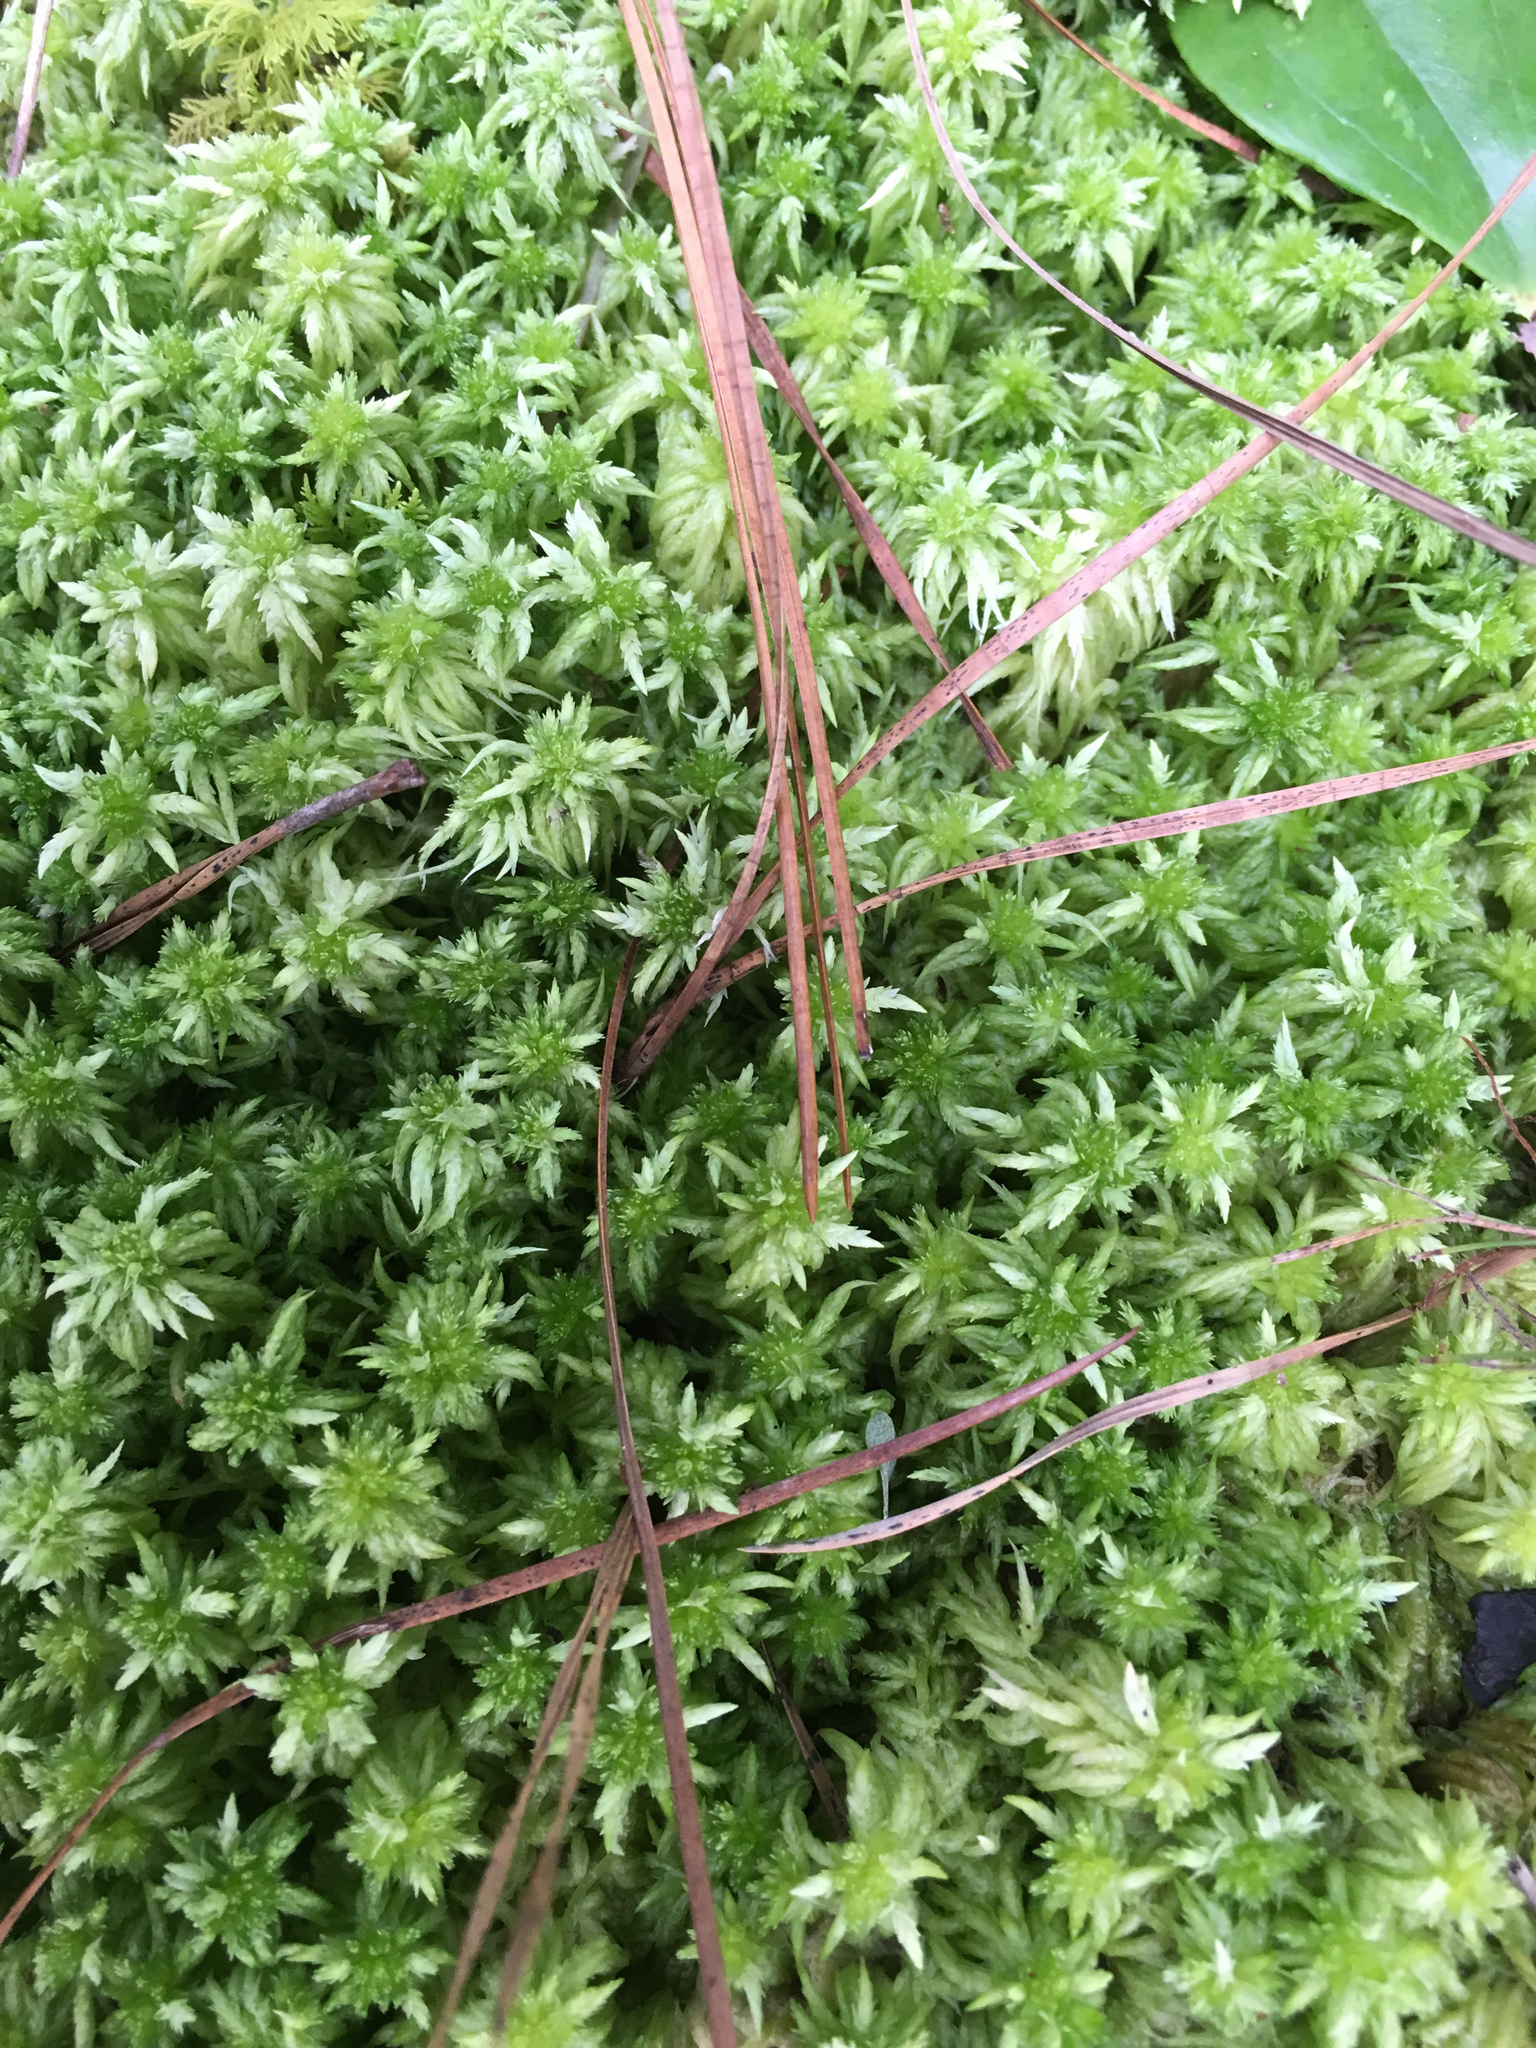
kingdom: Plantae
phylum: Bryophyta
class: Sphagnopsida
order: Sphagnales
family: Sphagnaceae
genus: Sphagnum
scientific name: Sphagnum lescurii
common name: Lesquereux's peat moss
